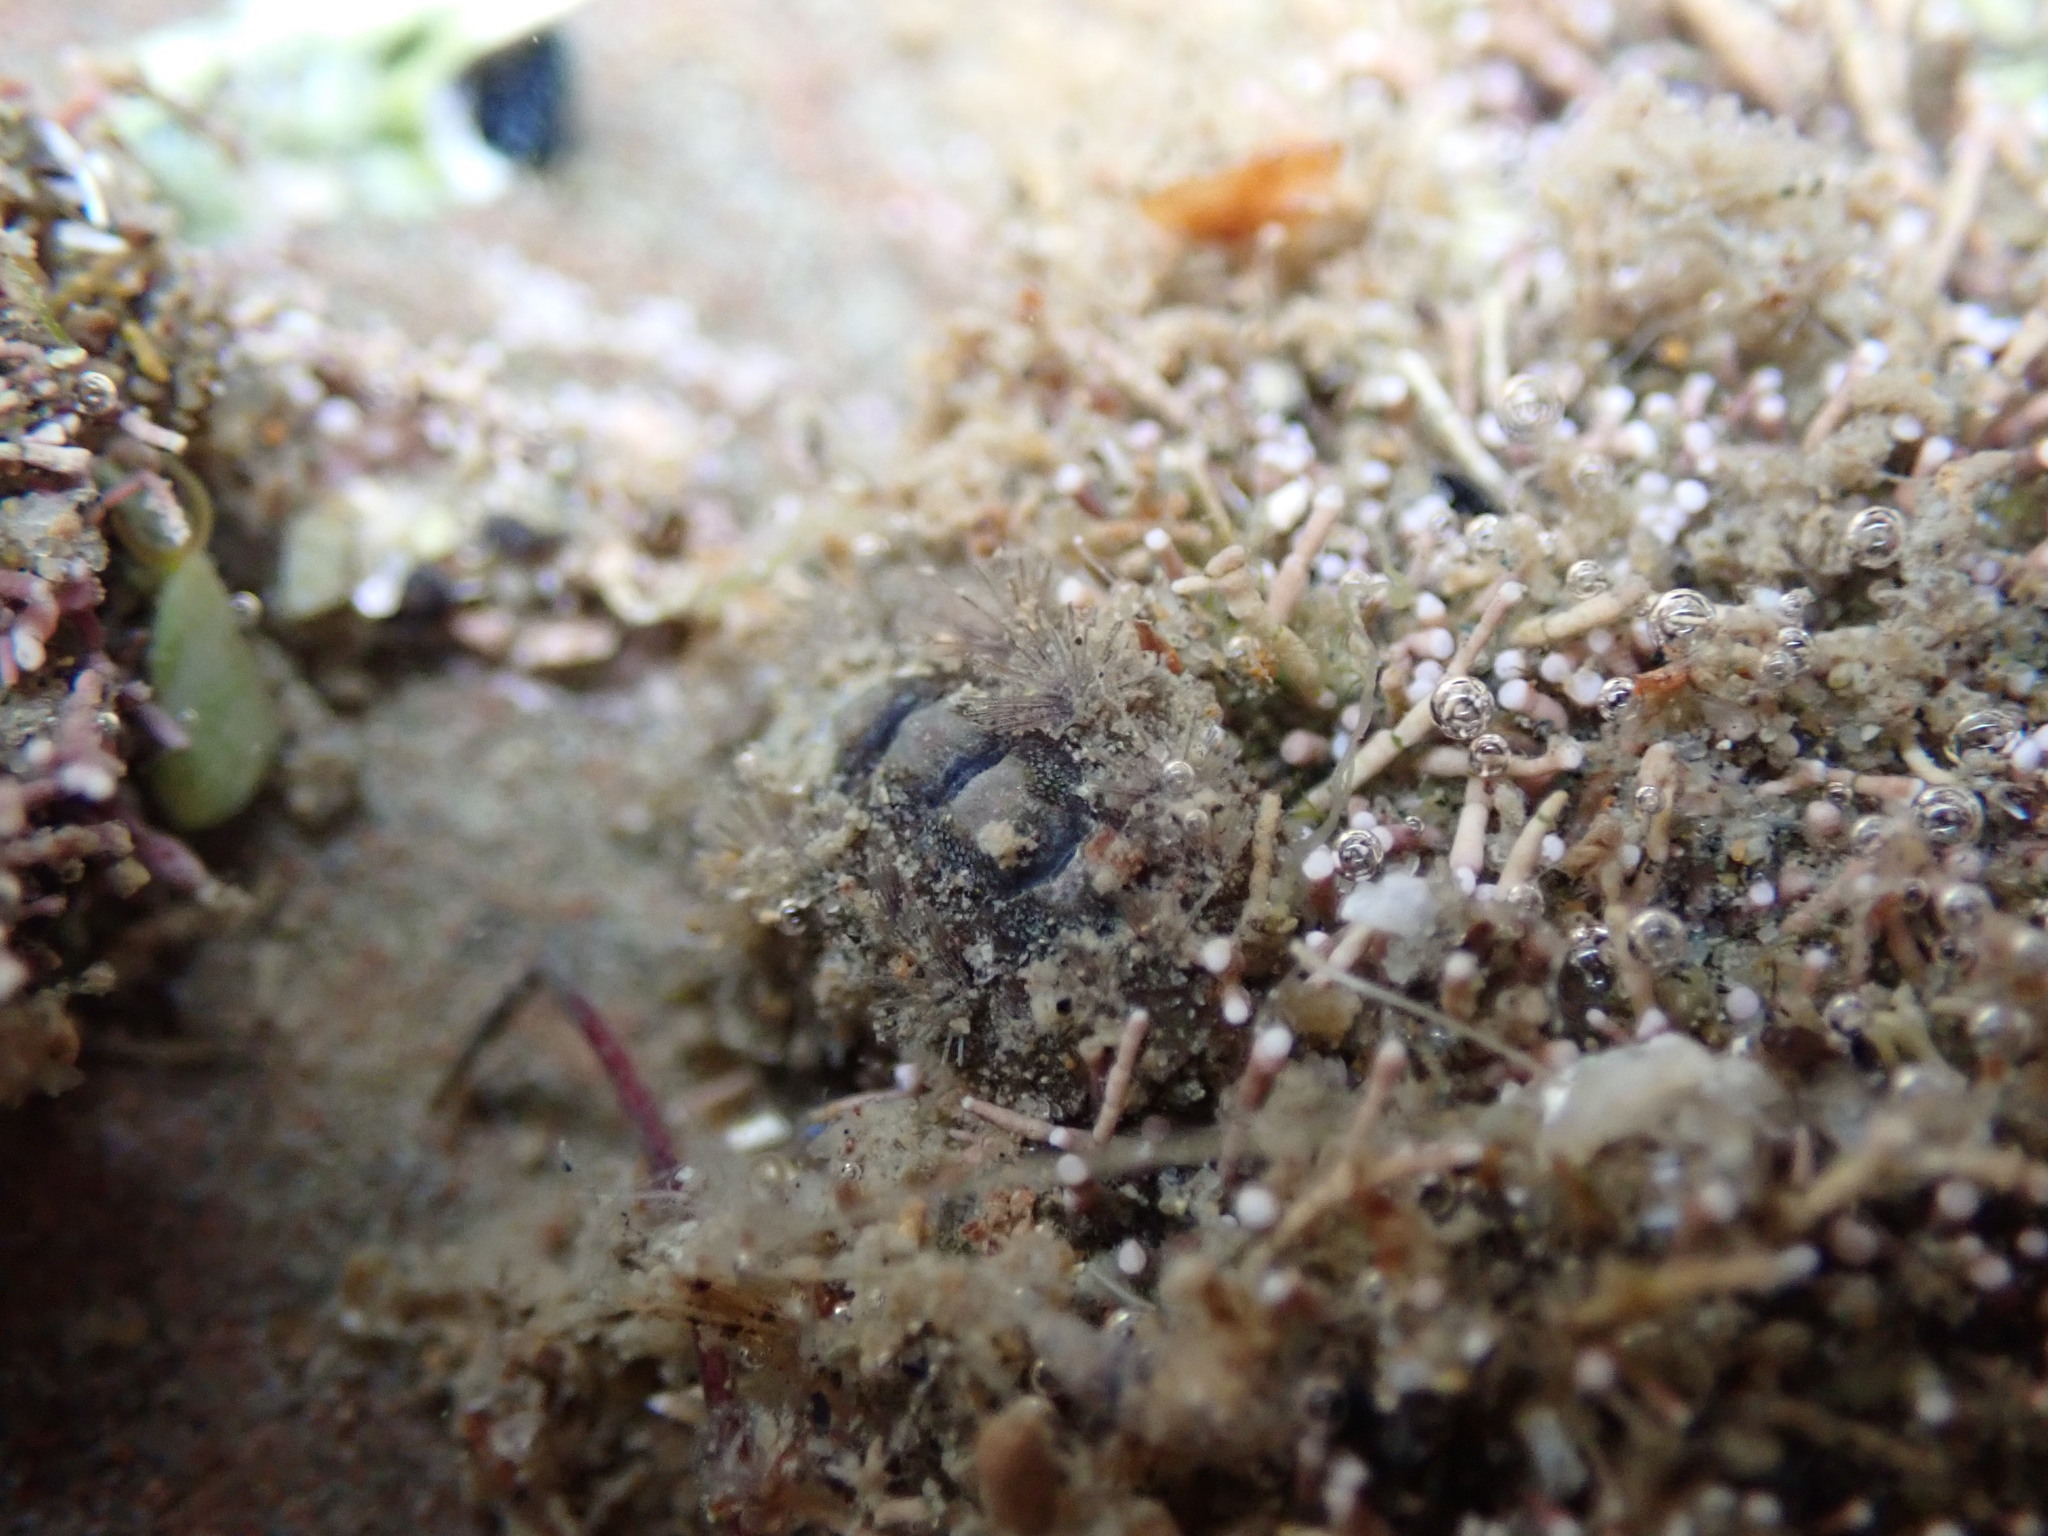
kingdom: Animalia
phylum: Mollusca
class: Polyplacophora
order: Chitonida
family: Acanthochitonidae
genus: Acanthochitona
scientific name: Acanthochitona zelandica
